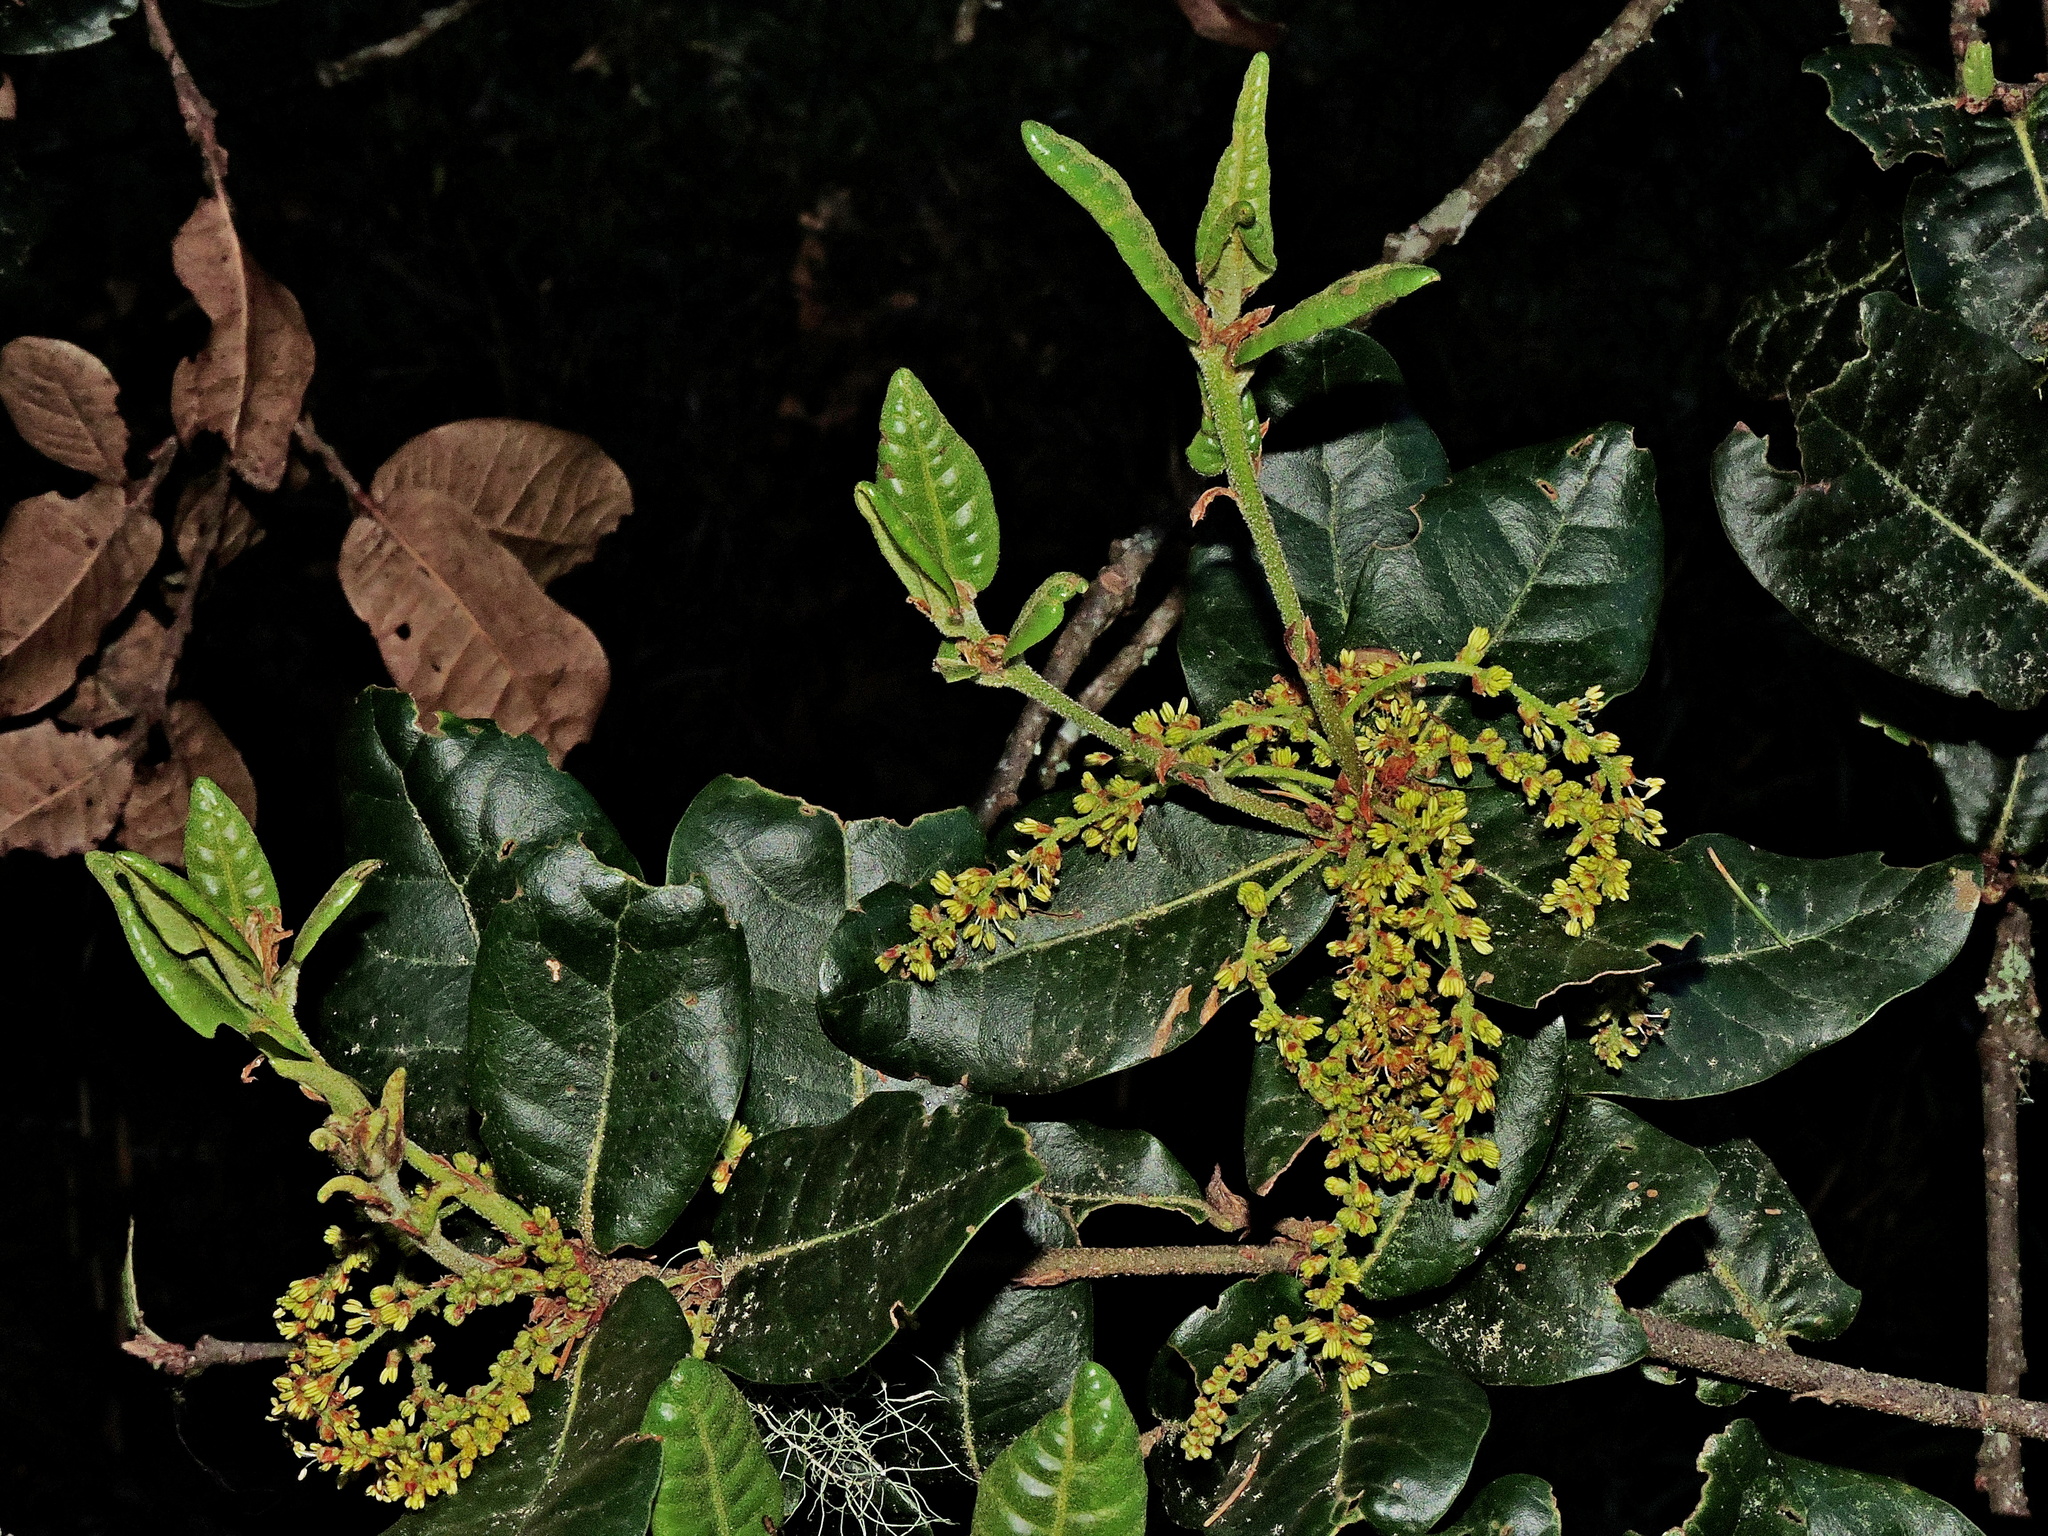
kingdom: Plantae
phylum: Tracheophyta
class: Magnoliopsida
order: Fagales
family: Fagaceae
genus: Quercus
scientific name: Quercus spinosa
